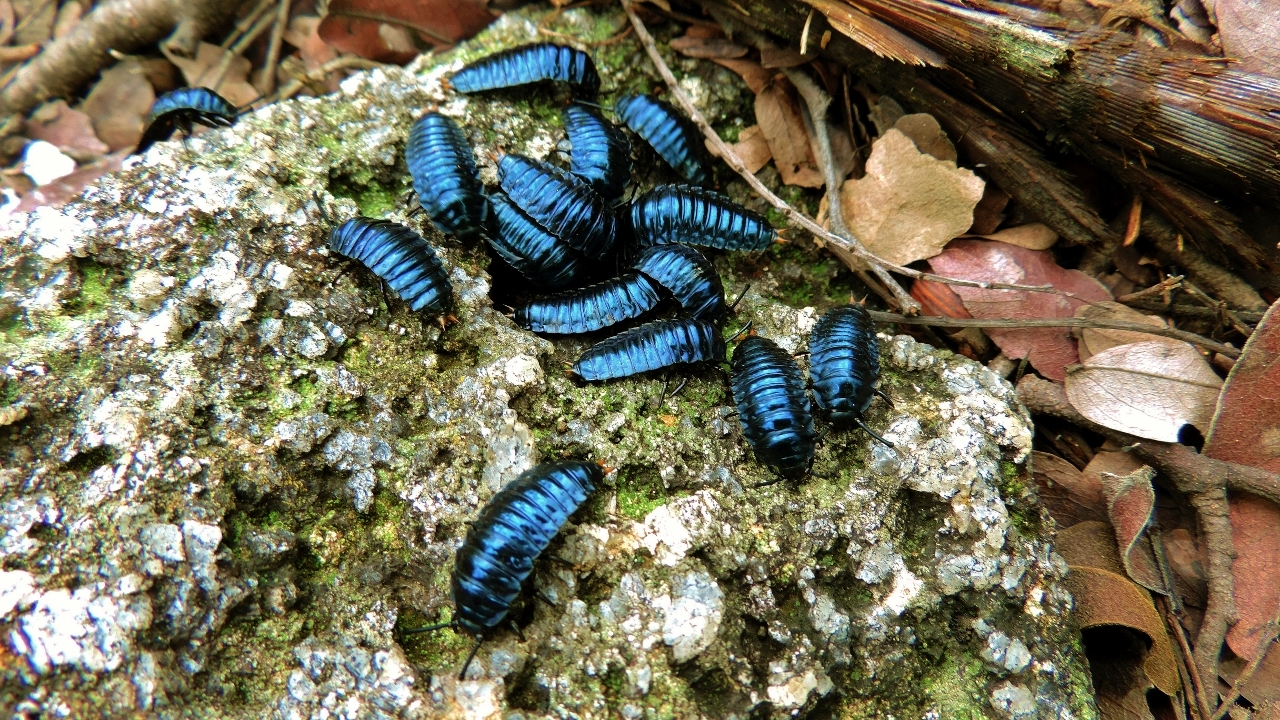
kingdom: Animalia
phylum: Arthropoda
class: Insecta
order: Coleoptera
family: Tenebrionidae
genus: Catamerus
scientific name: Catamerus
